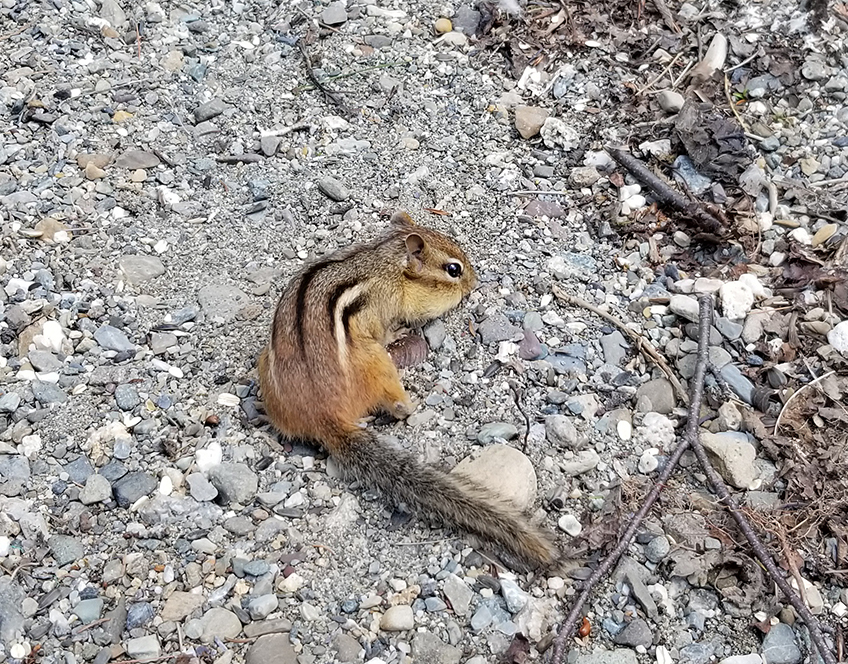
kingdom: Animalia
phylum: Chordata
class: Mammalia
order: Rodentia
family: Sciuridae
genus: Tamias
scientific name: Tamias striatus
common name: Eastern chipmunk
